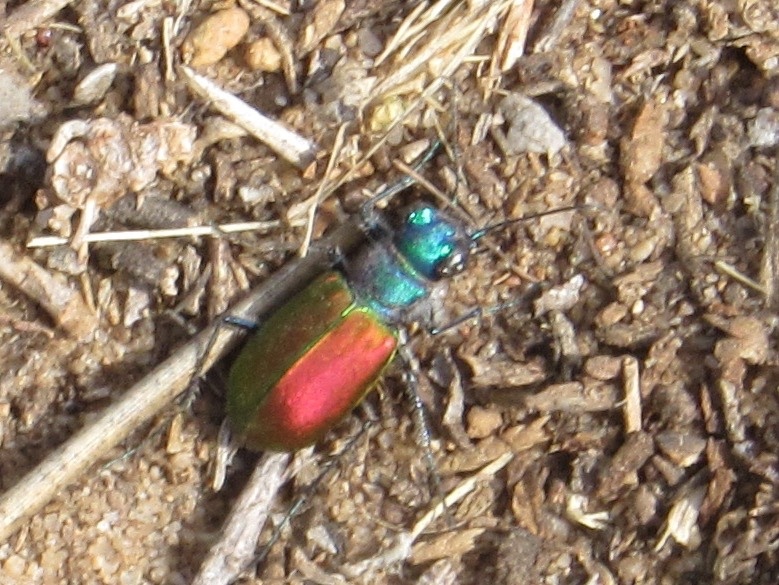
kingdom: Animalia
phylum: Arthropoda
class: Insecta
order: Coleoptera
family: Carabidae
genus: Cicindela
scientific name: Cicindela scutellaris
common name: Festive tiger beetle
